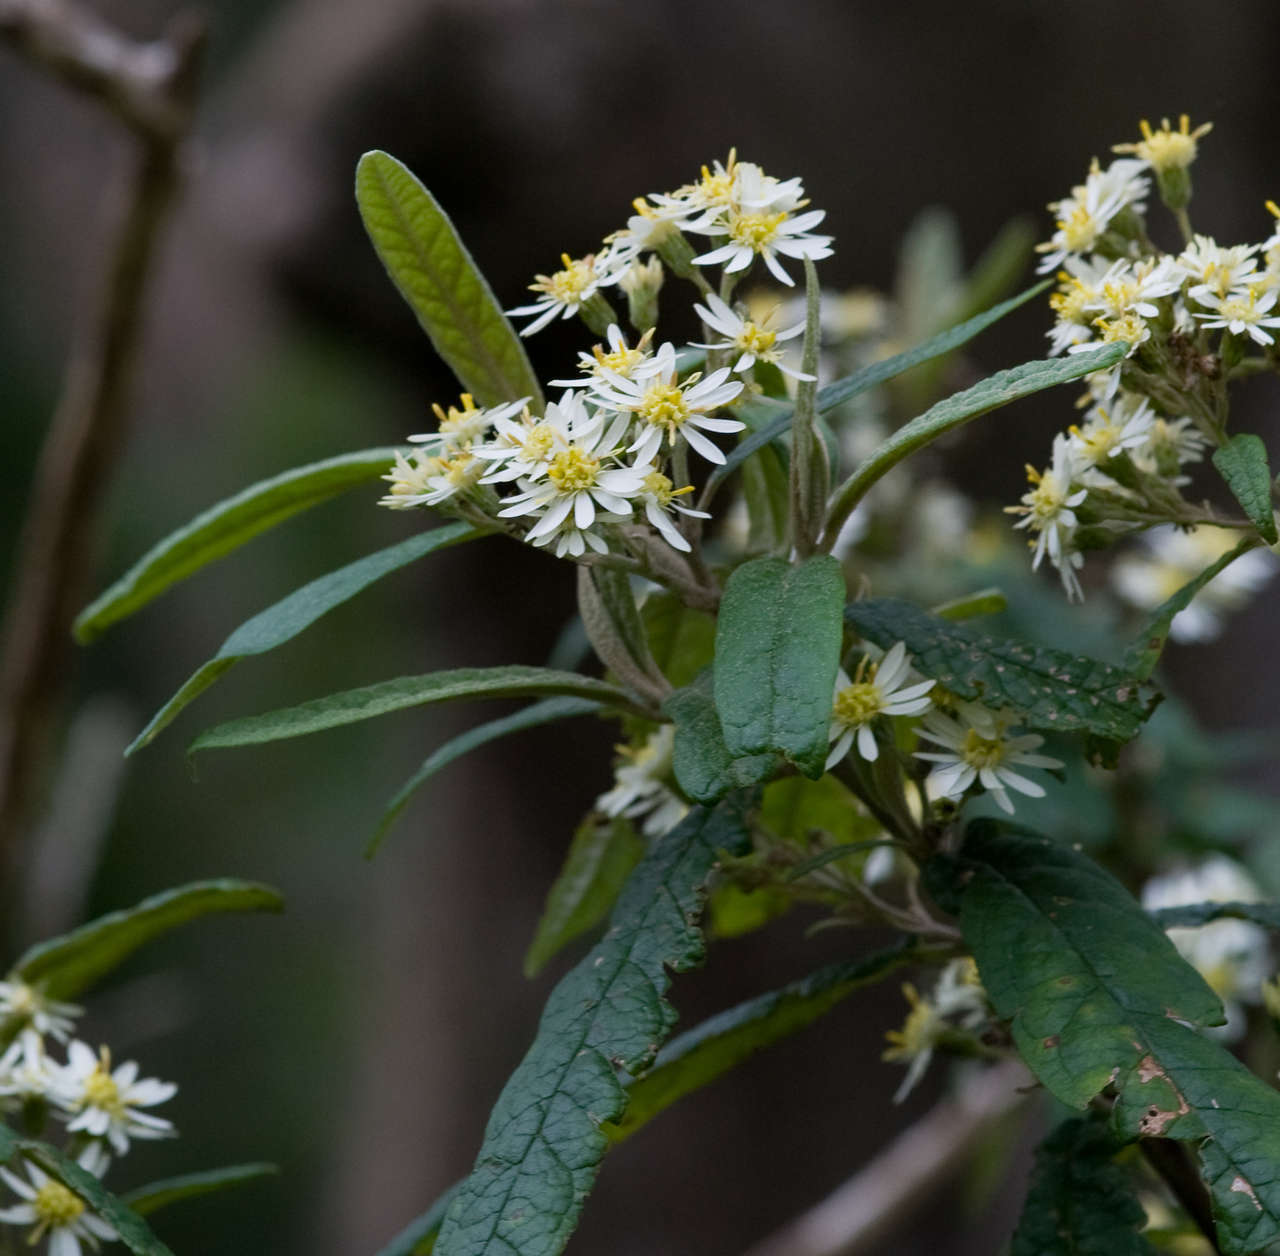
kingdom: Plantae
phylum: Tracheophyta
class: Magnoliopsida
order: Asterales
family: Asteraceae
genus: Olearia
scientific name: Olearia lirata
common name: Dusty daisybush
